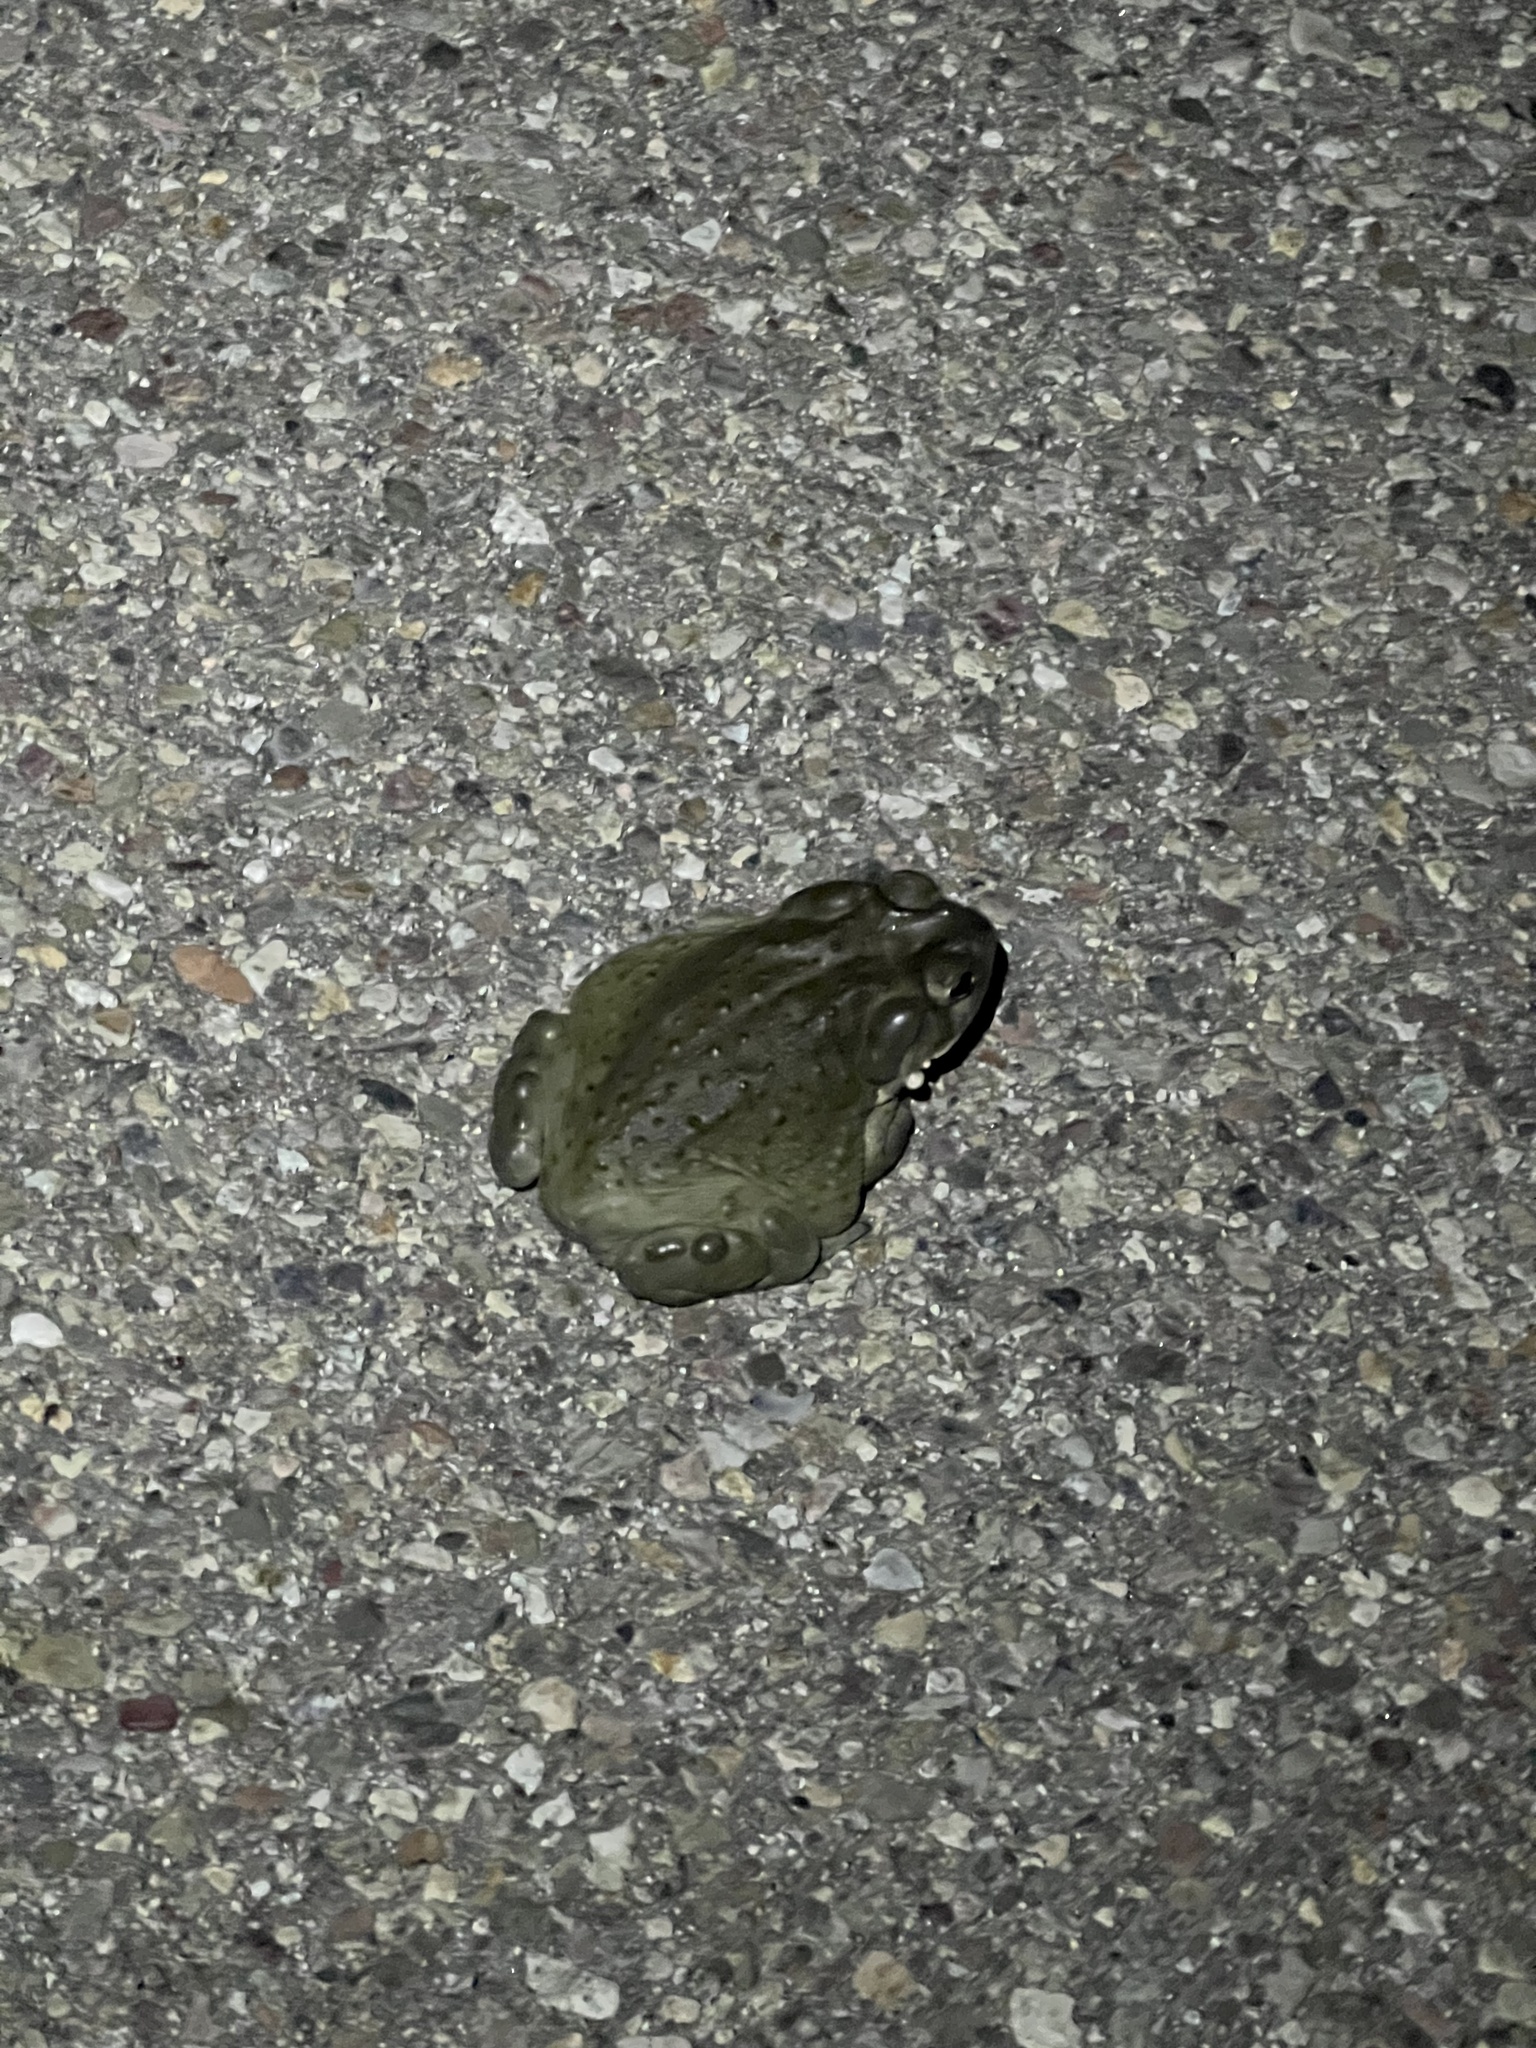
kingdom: Animalia
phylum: Chordata
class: Amphibia
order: Anura
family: Bufonidae
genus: Incilius
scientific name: Incilius alvarius
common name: Sonoran desert toad
